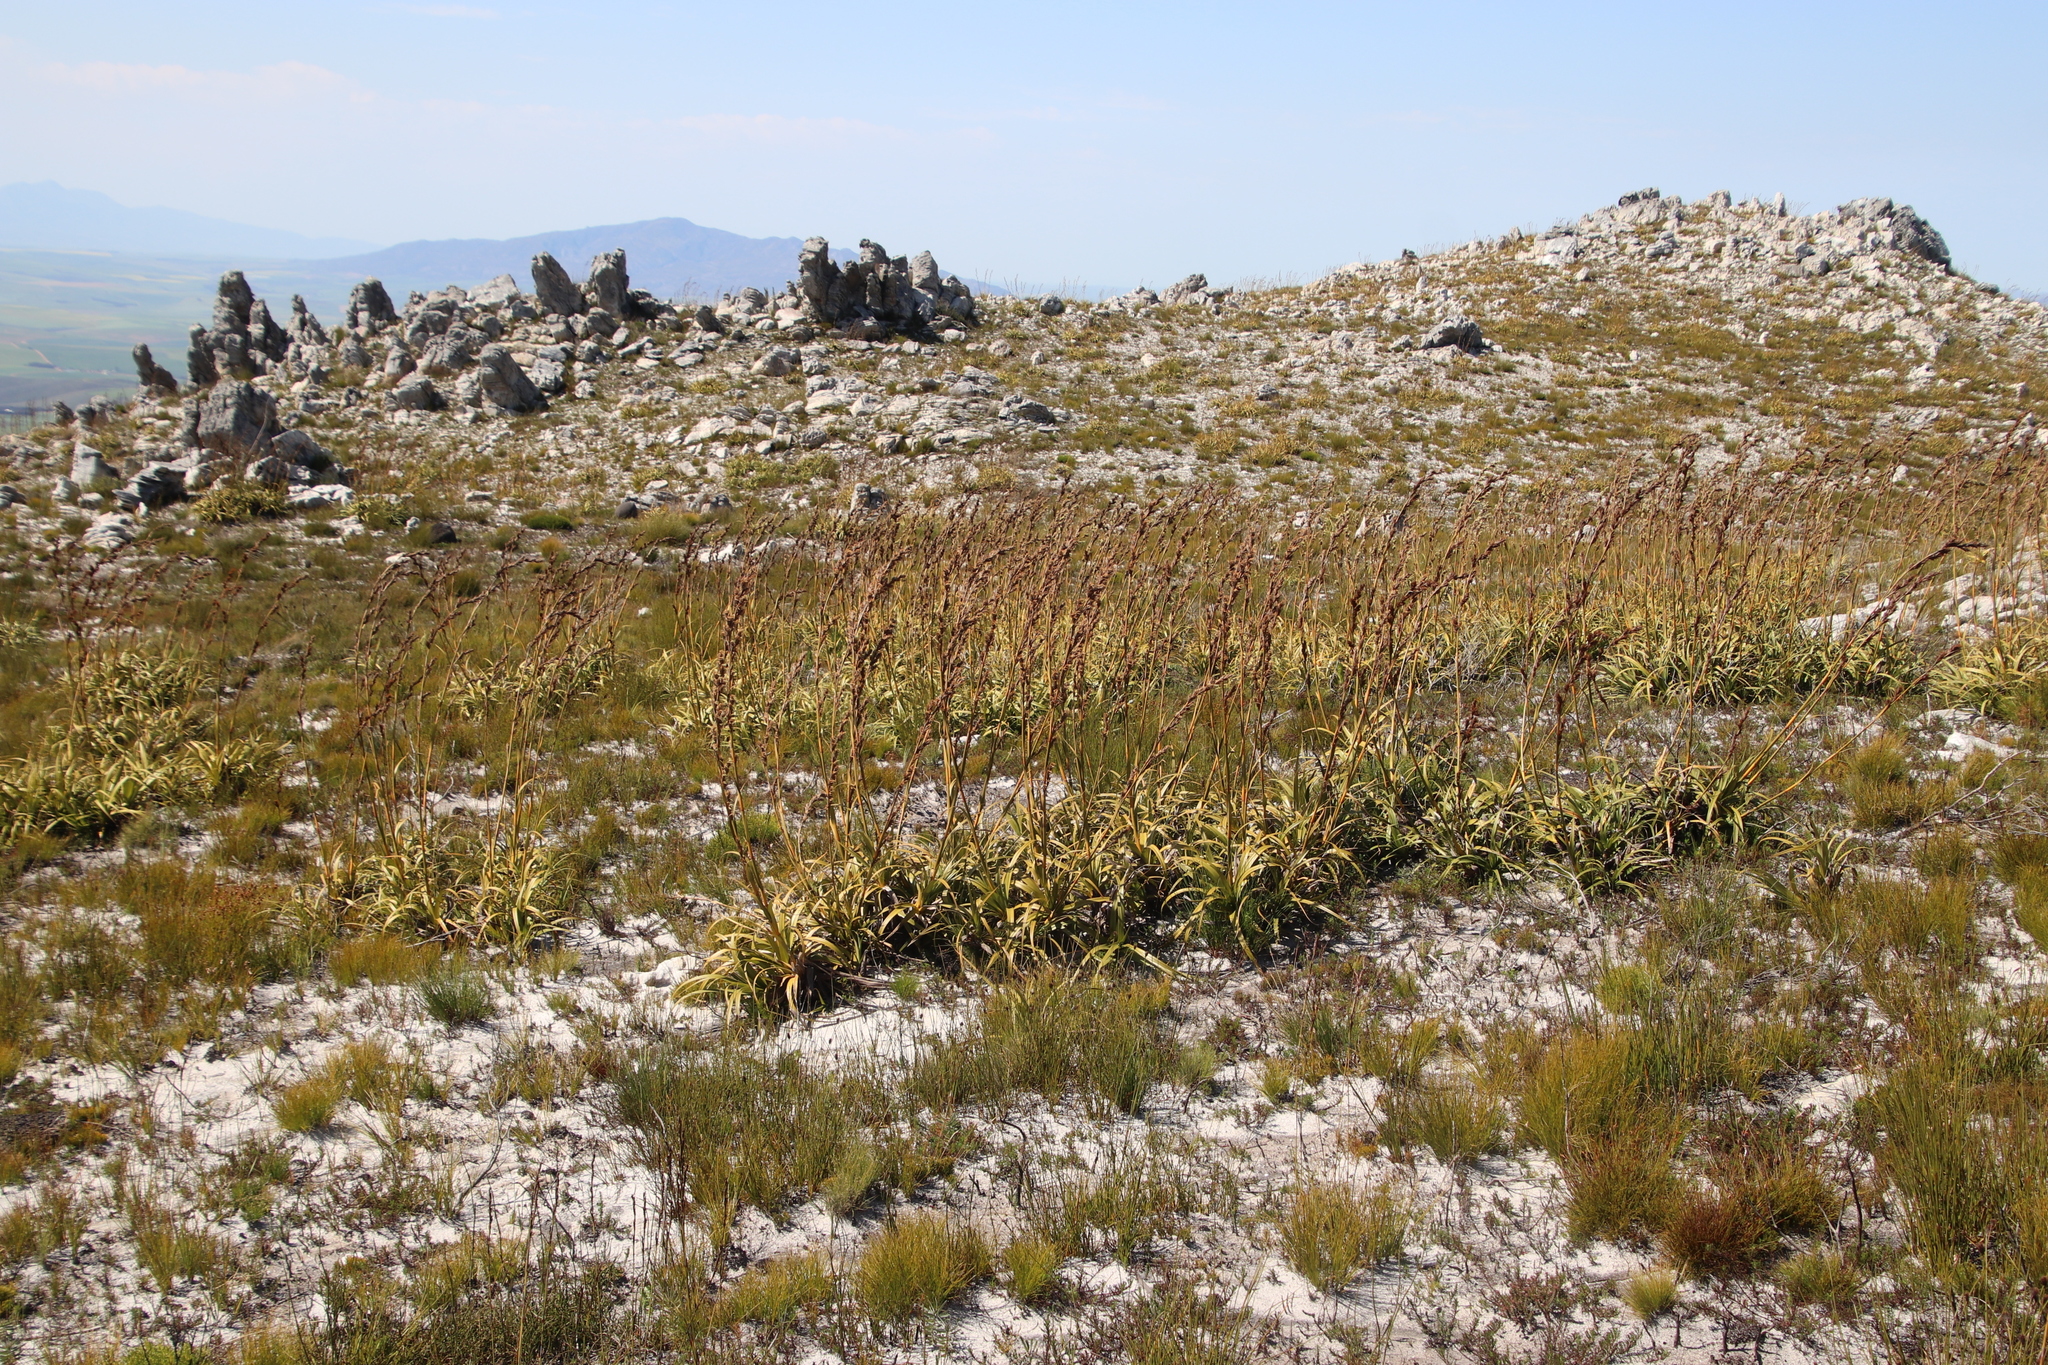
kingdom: Plantae
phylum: Tracheophyta
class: Liliopsida
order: Poales
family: Cyperaceae
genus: Tetraria
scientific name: Tetraria thermalis
